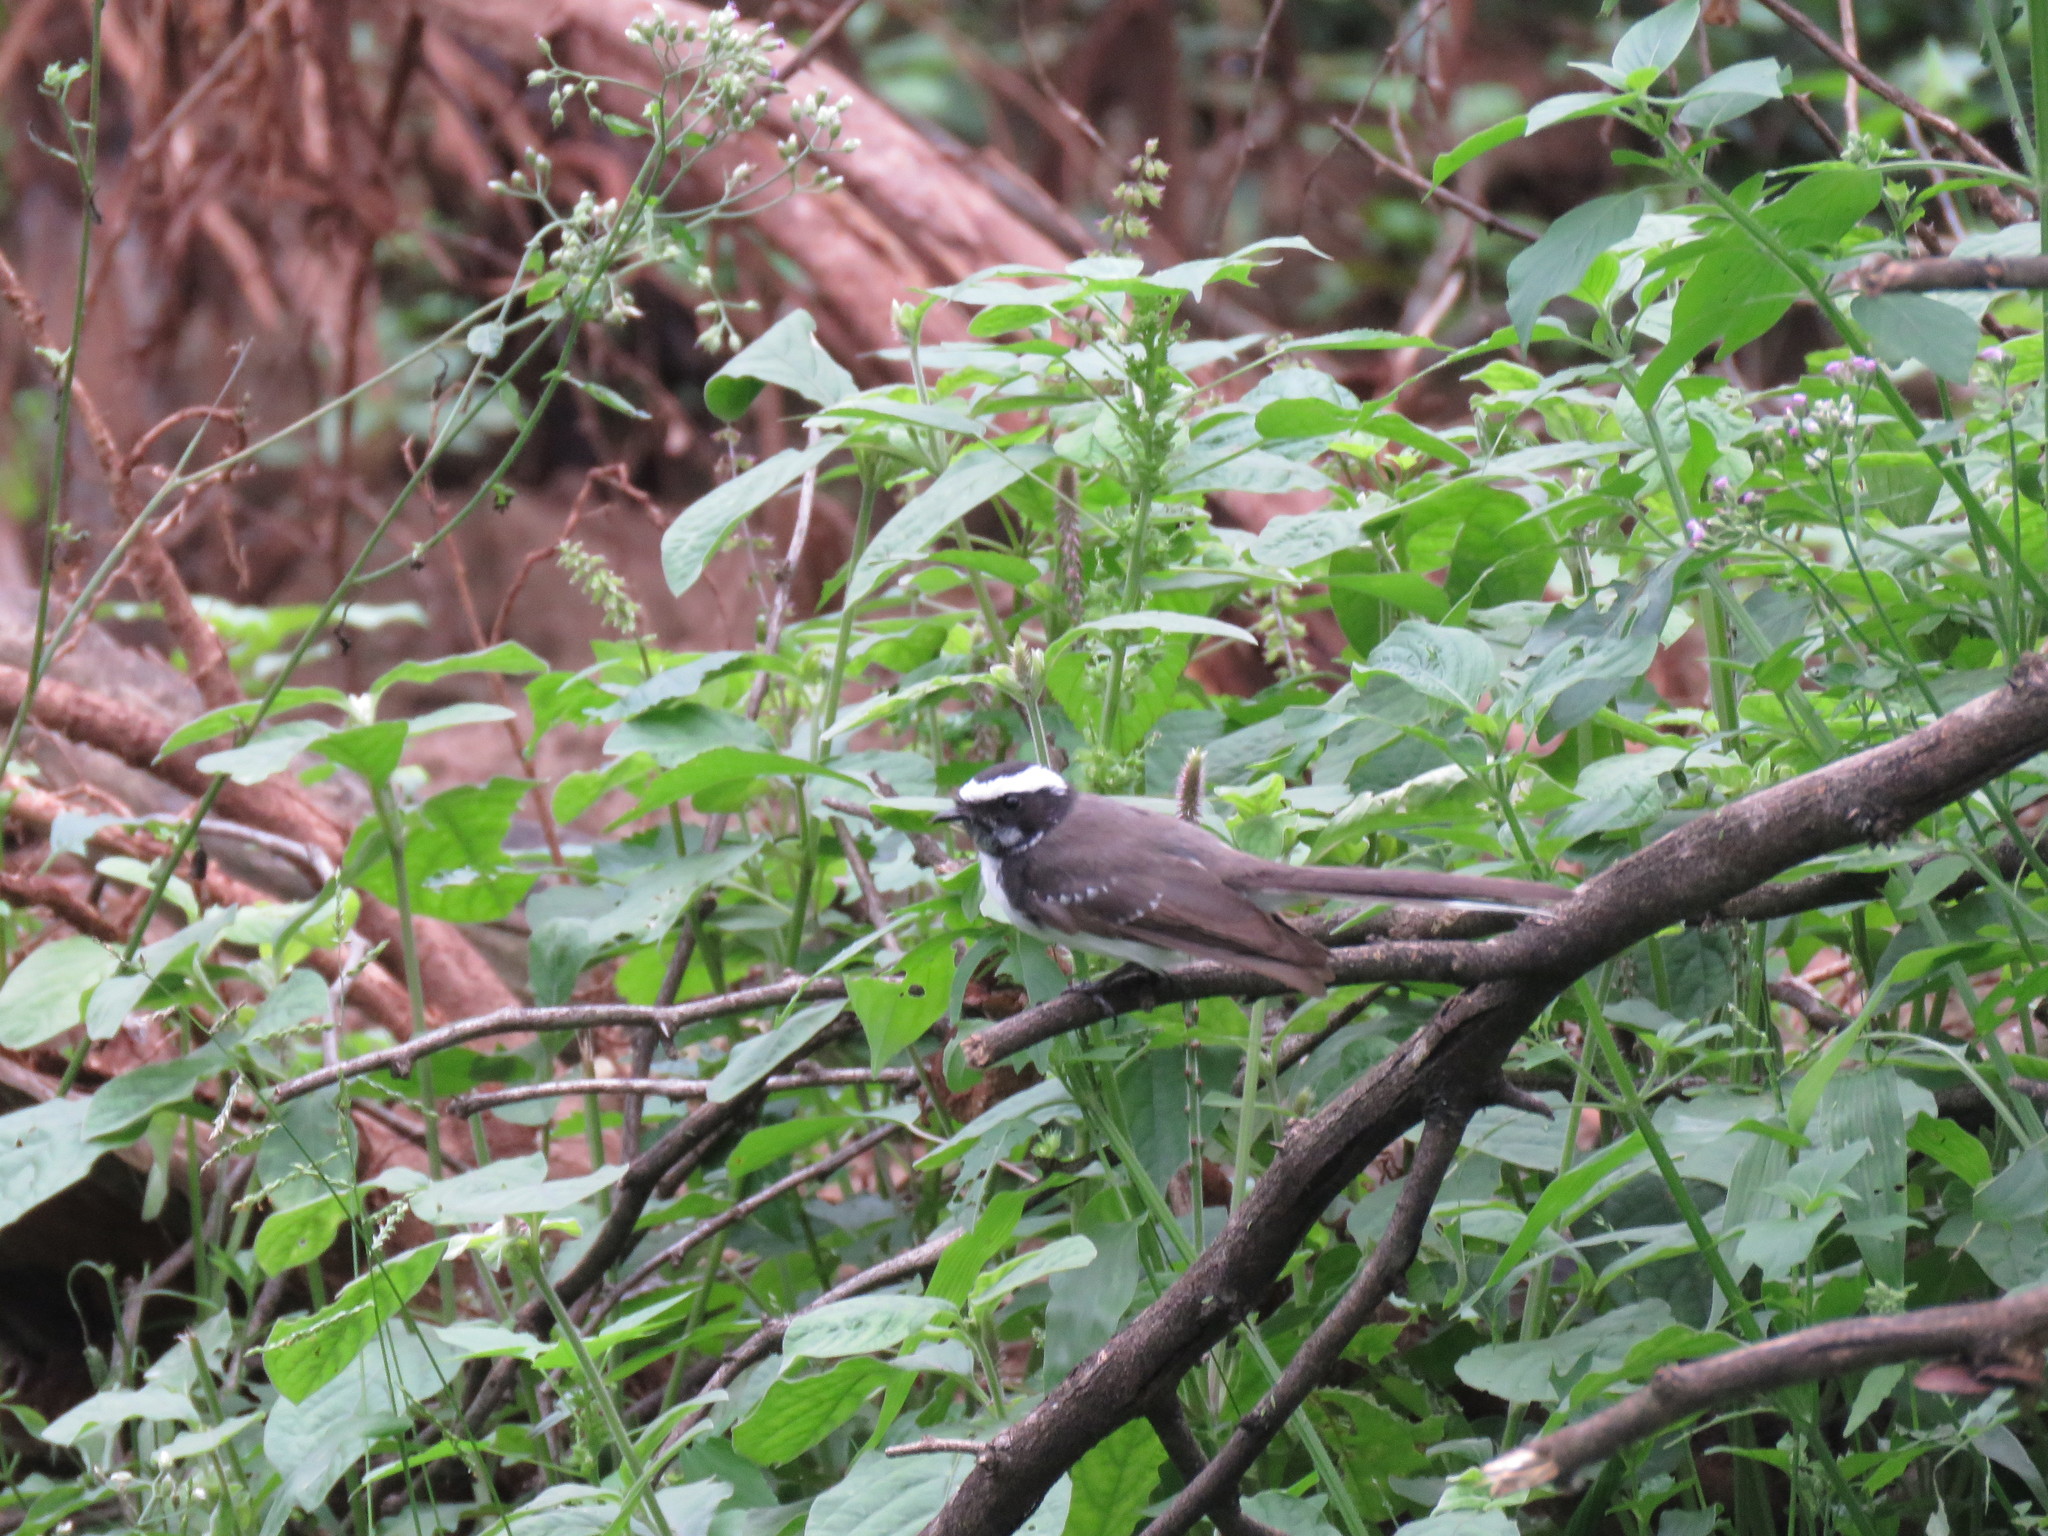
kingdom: Animalia
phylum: Chordata
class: Aves
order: Passeriformes
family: Rhipiduridae
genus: Rhipidura
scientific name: Rhipidura aureola
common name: White-browed fantail
